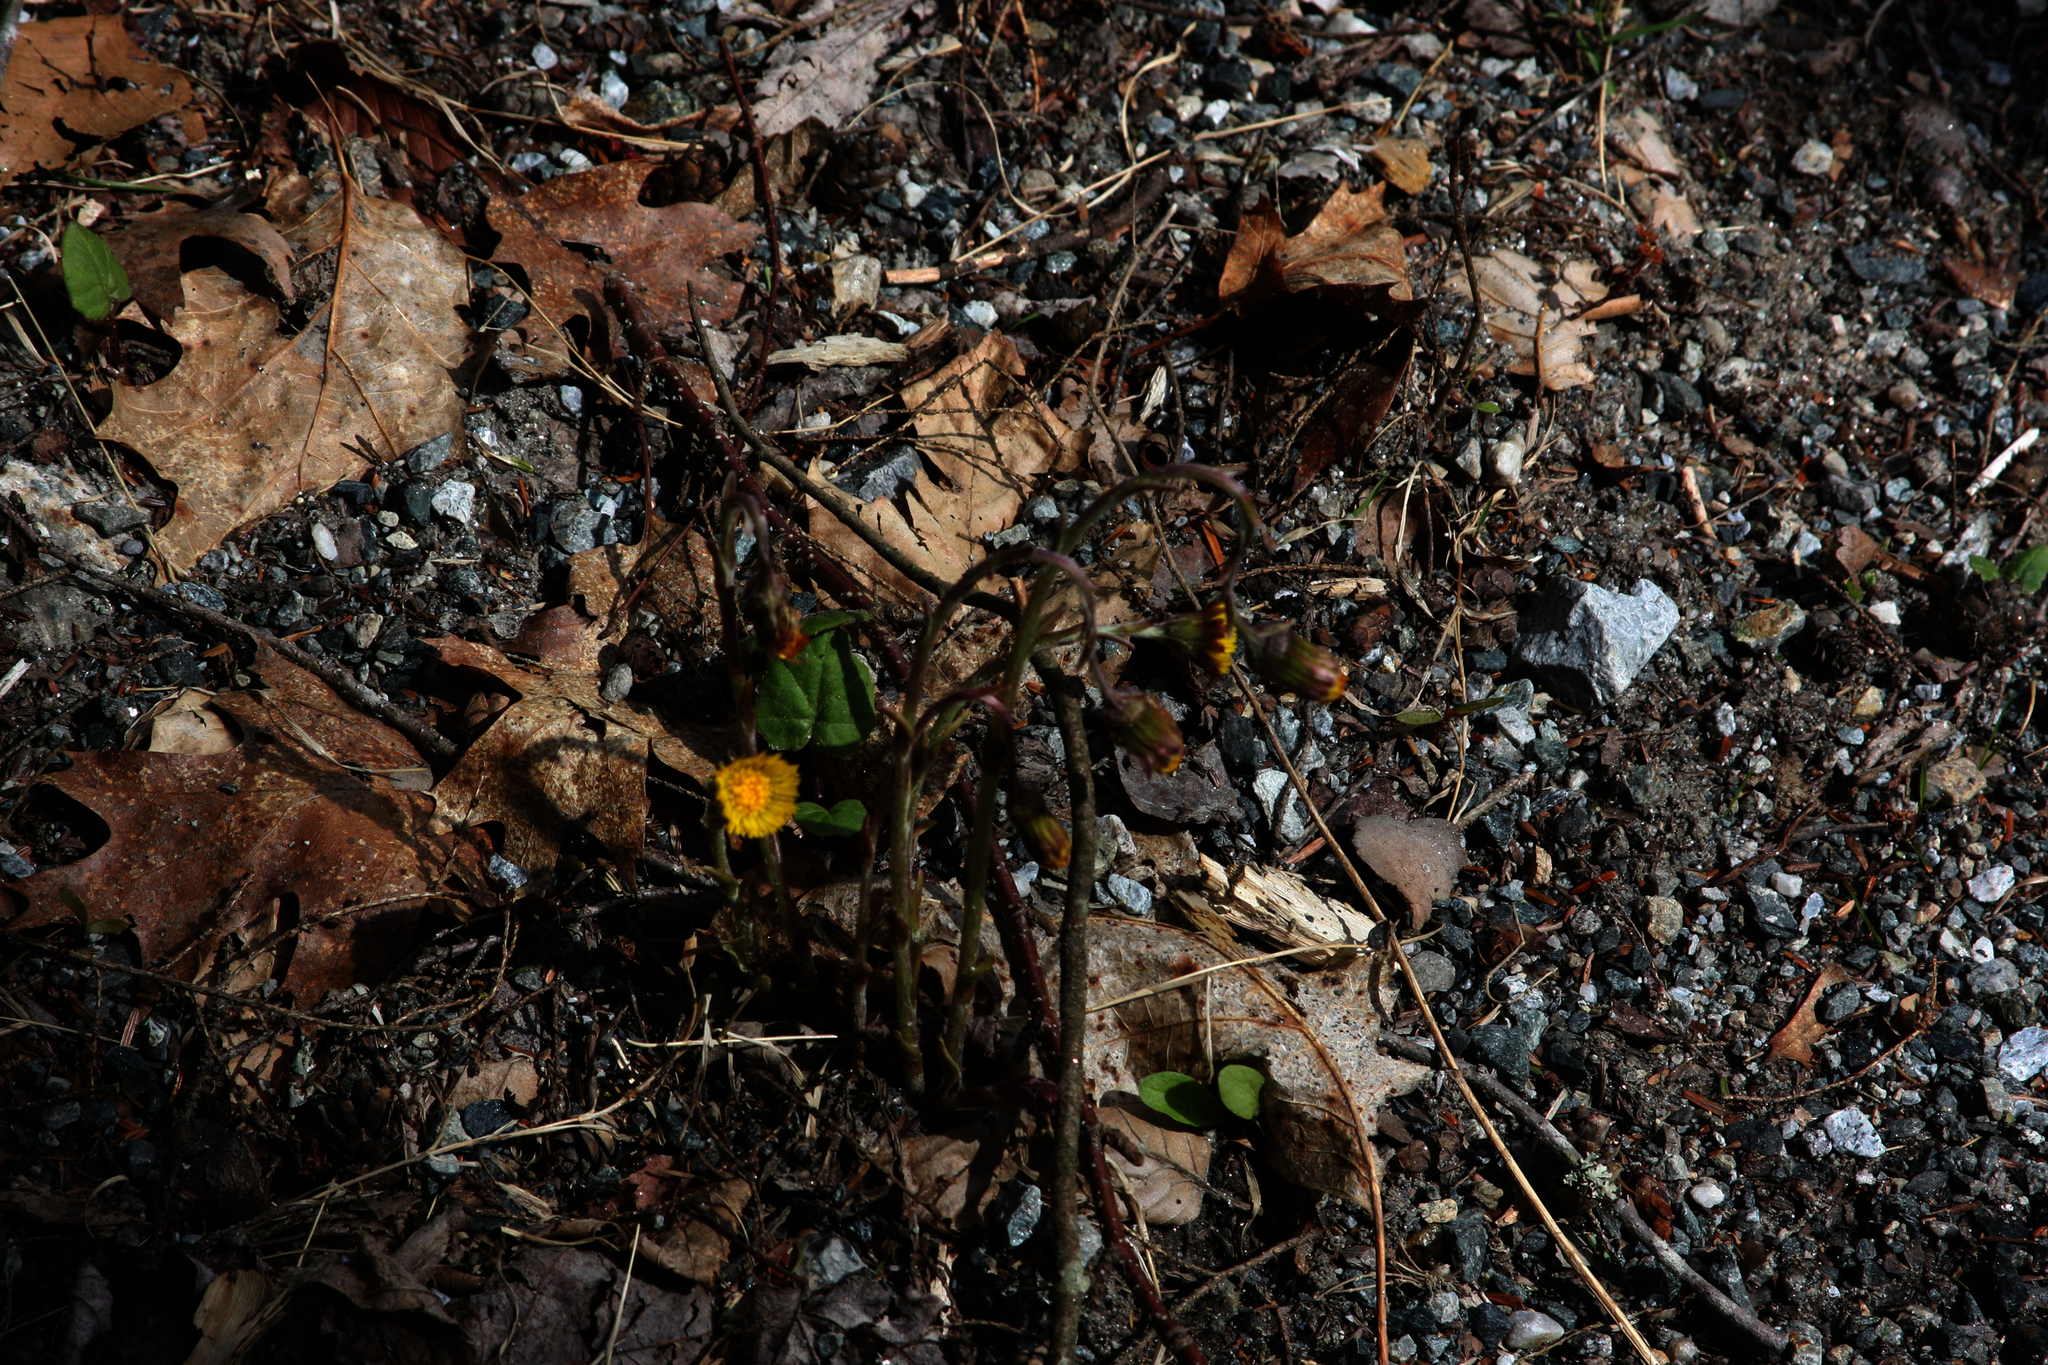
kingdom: Plantae
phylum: Tracheophyta
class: Magnoliopsida
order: Asterales
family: Asteraceae
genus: Tussilago
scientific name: Tussilago farfara
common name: Coltsfoot
